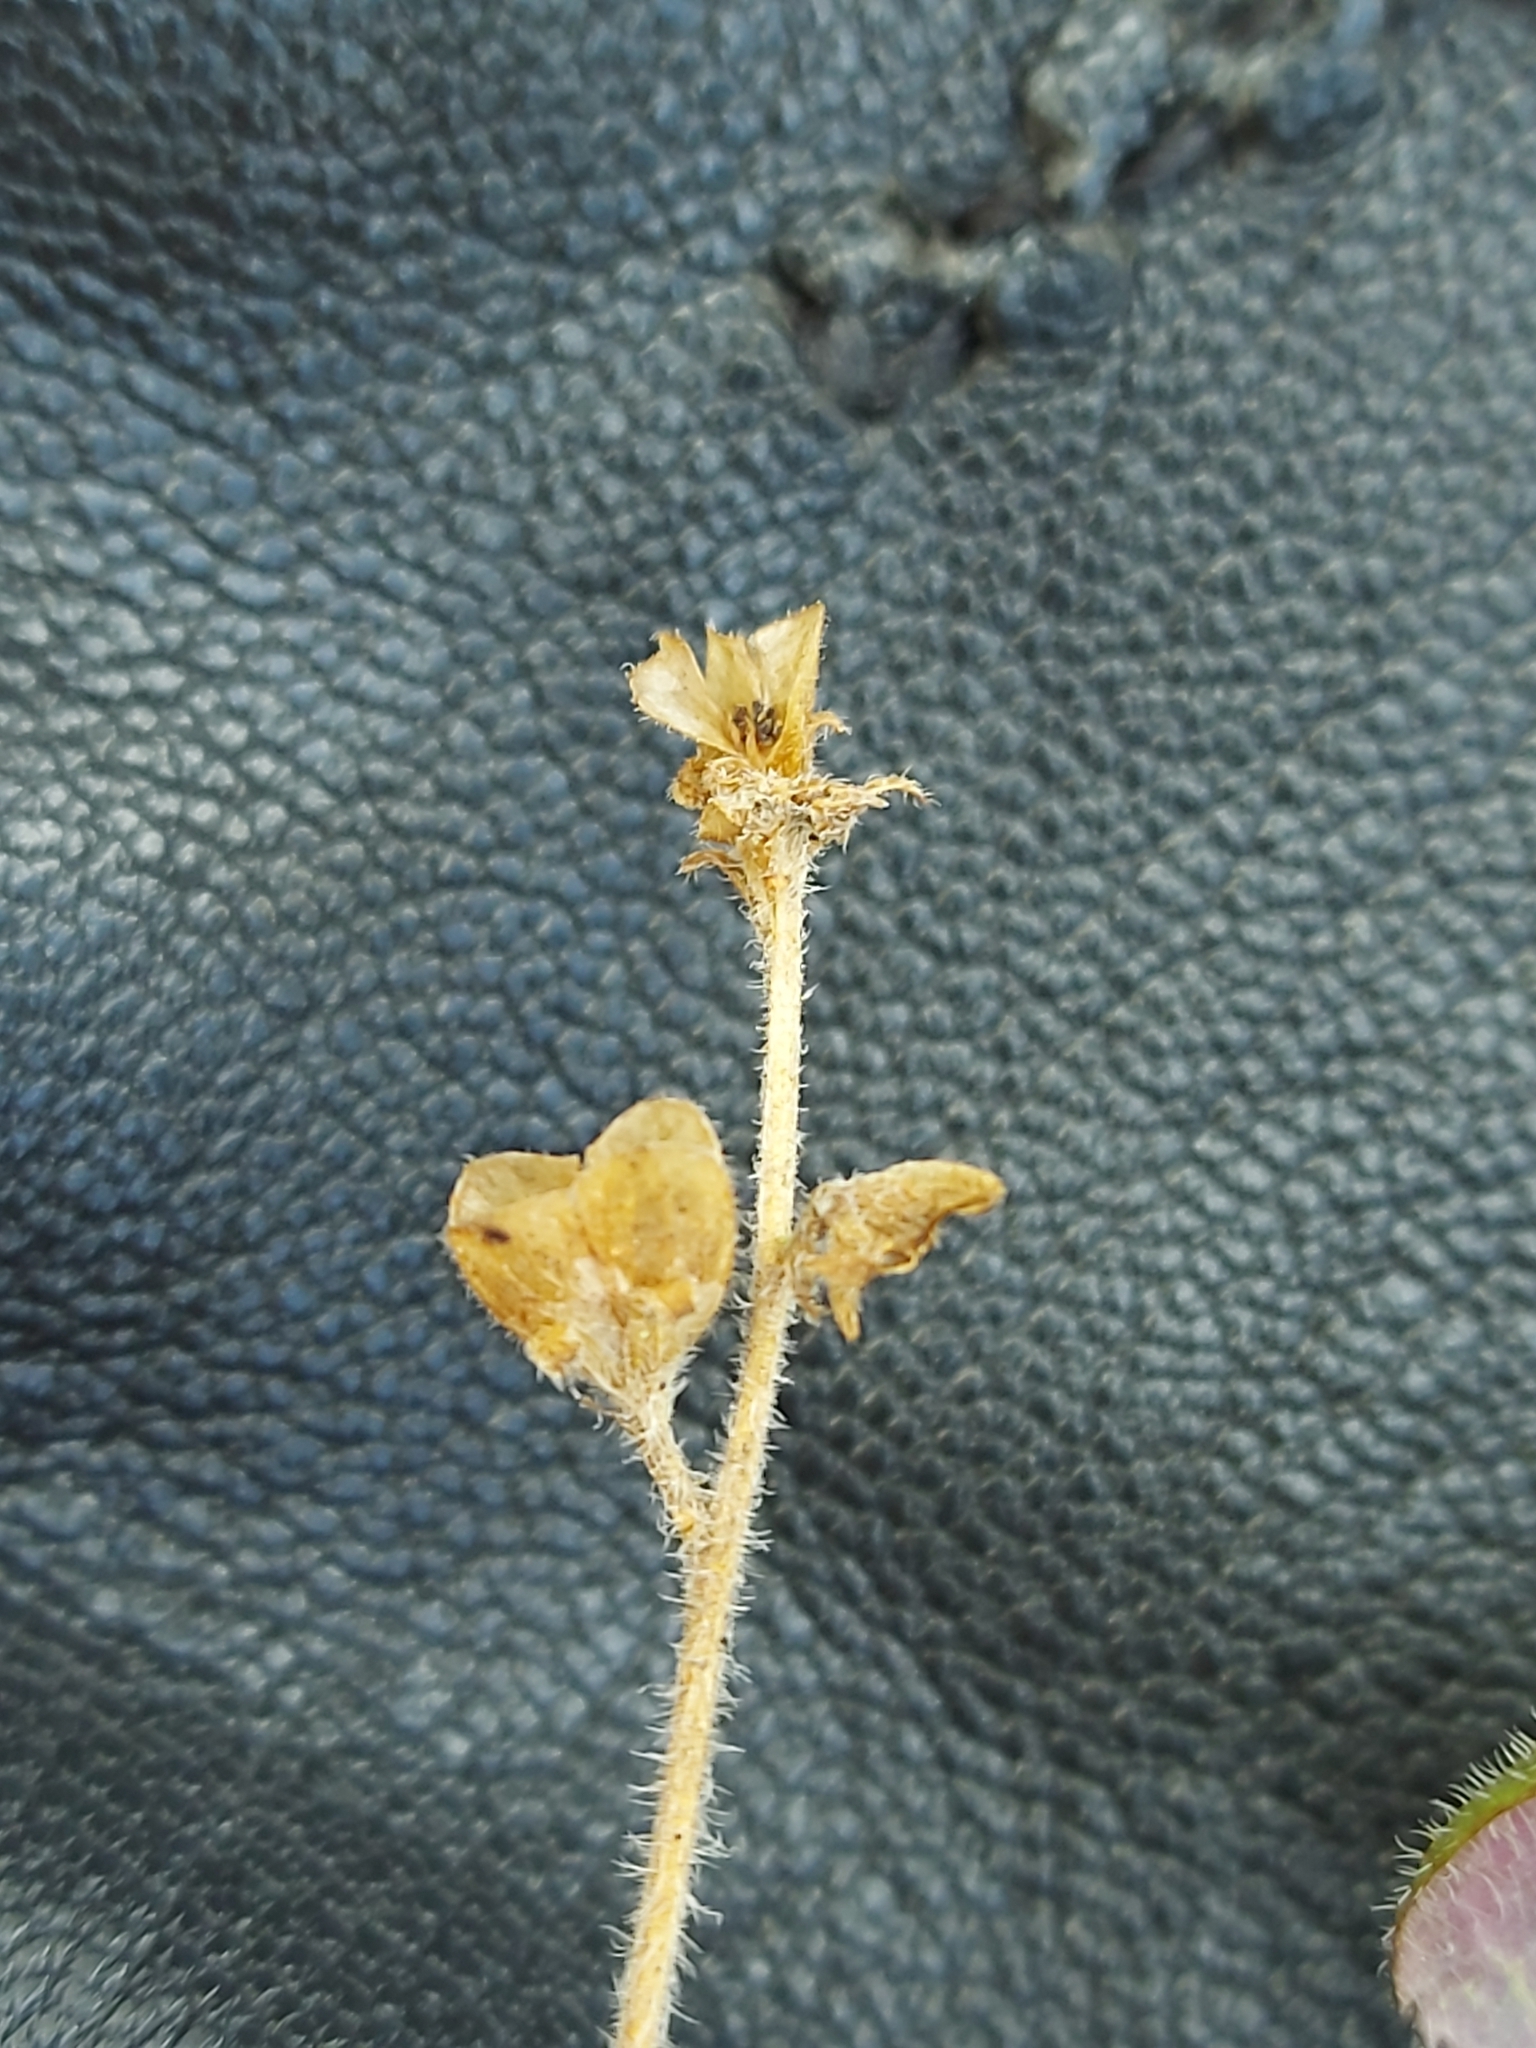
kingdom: Plantae
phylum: Tracheophyta
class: Magnoliopsida
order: Lamiales
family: Plantaginaceae
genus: Veronica
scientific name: Veronica officinalis
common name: Common speedwell
